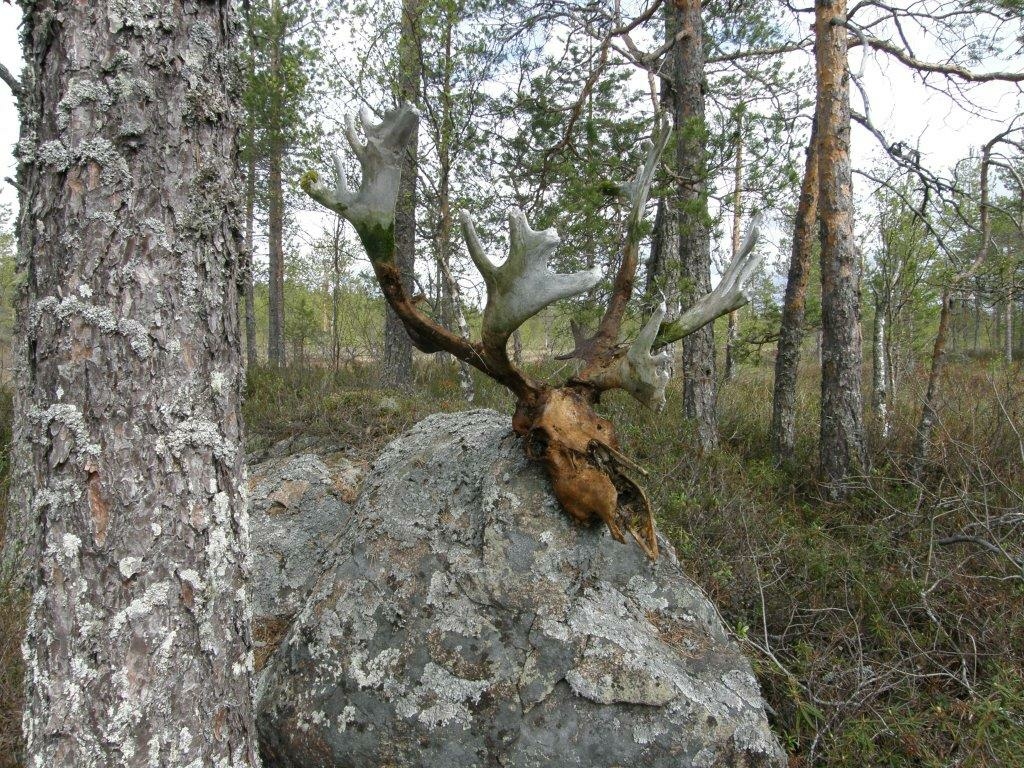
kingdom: Animalia
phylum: Chordata
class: Mammalia
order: Artiodactyla
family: Cervidae
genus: Rangifer
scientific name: Rangifer tarandus
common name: Reindeer
